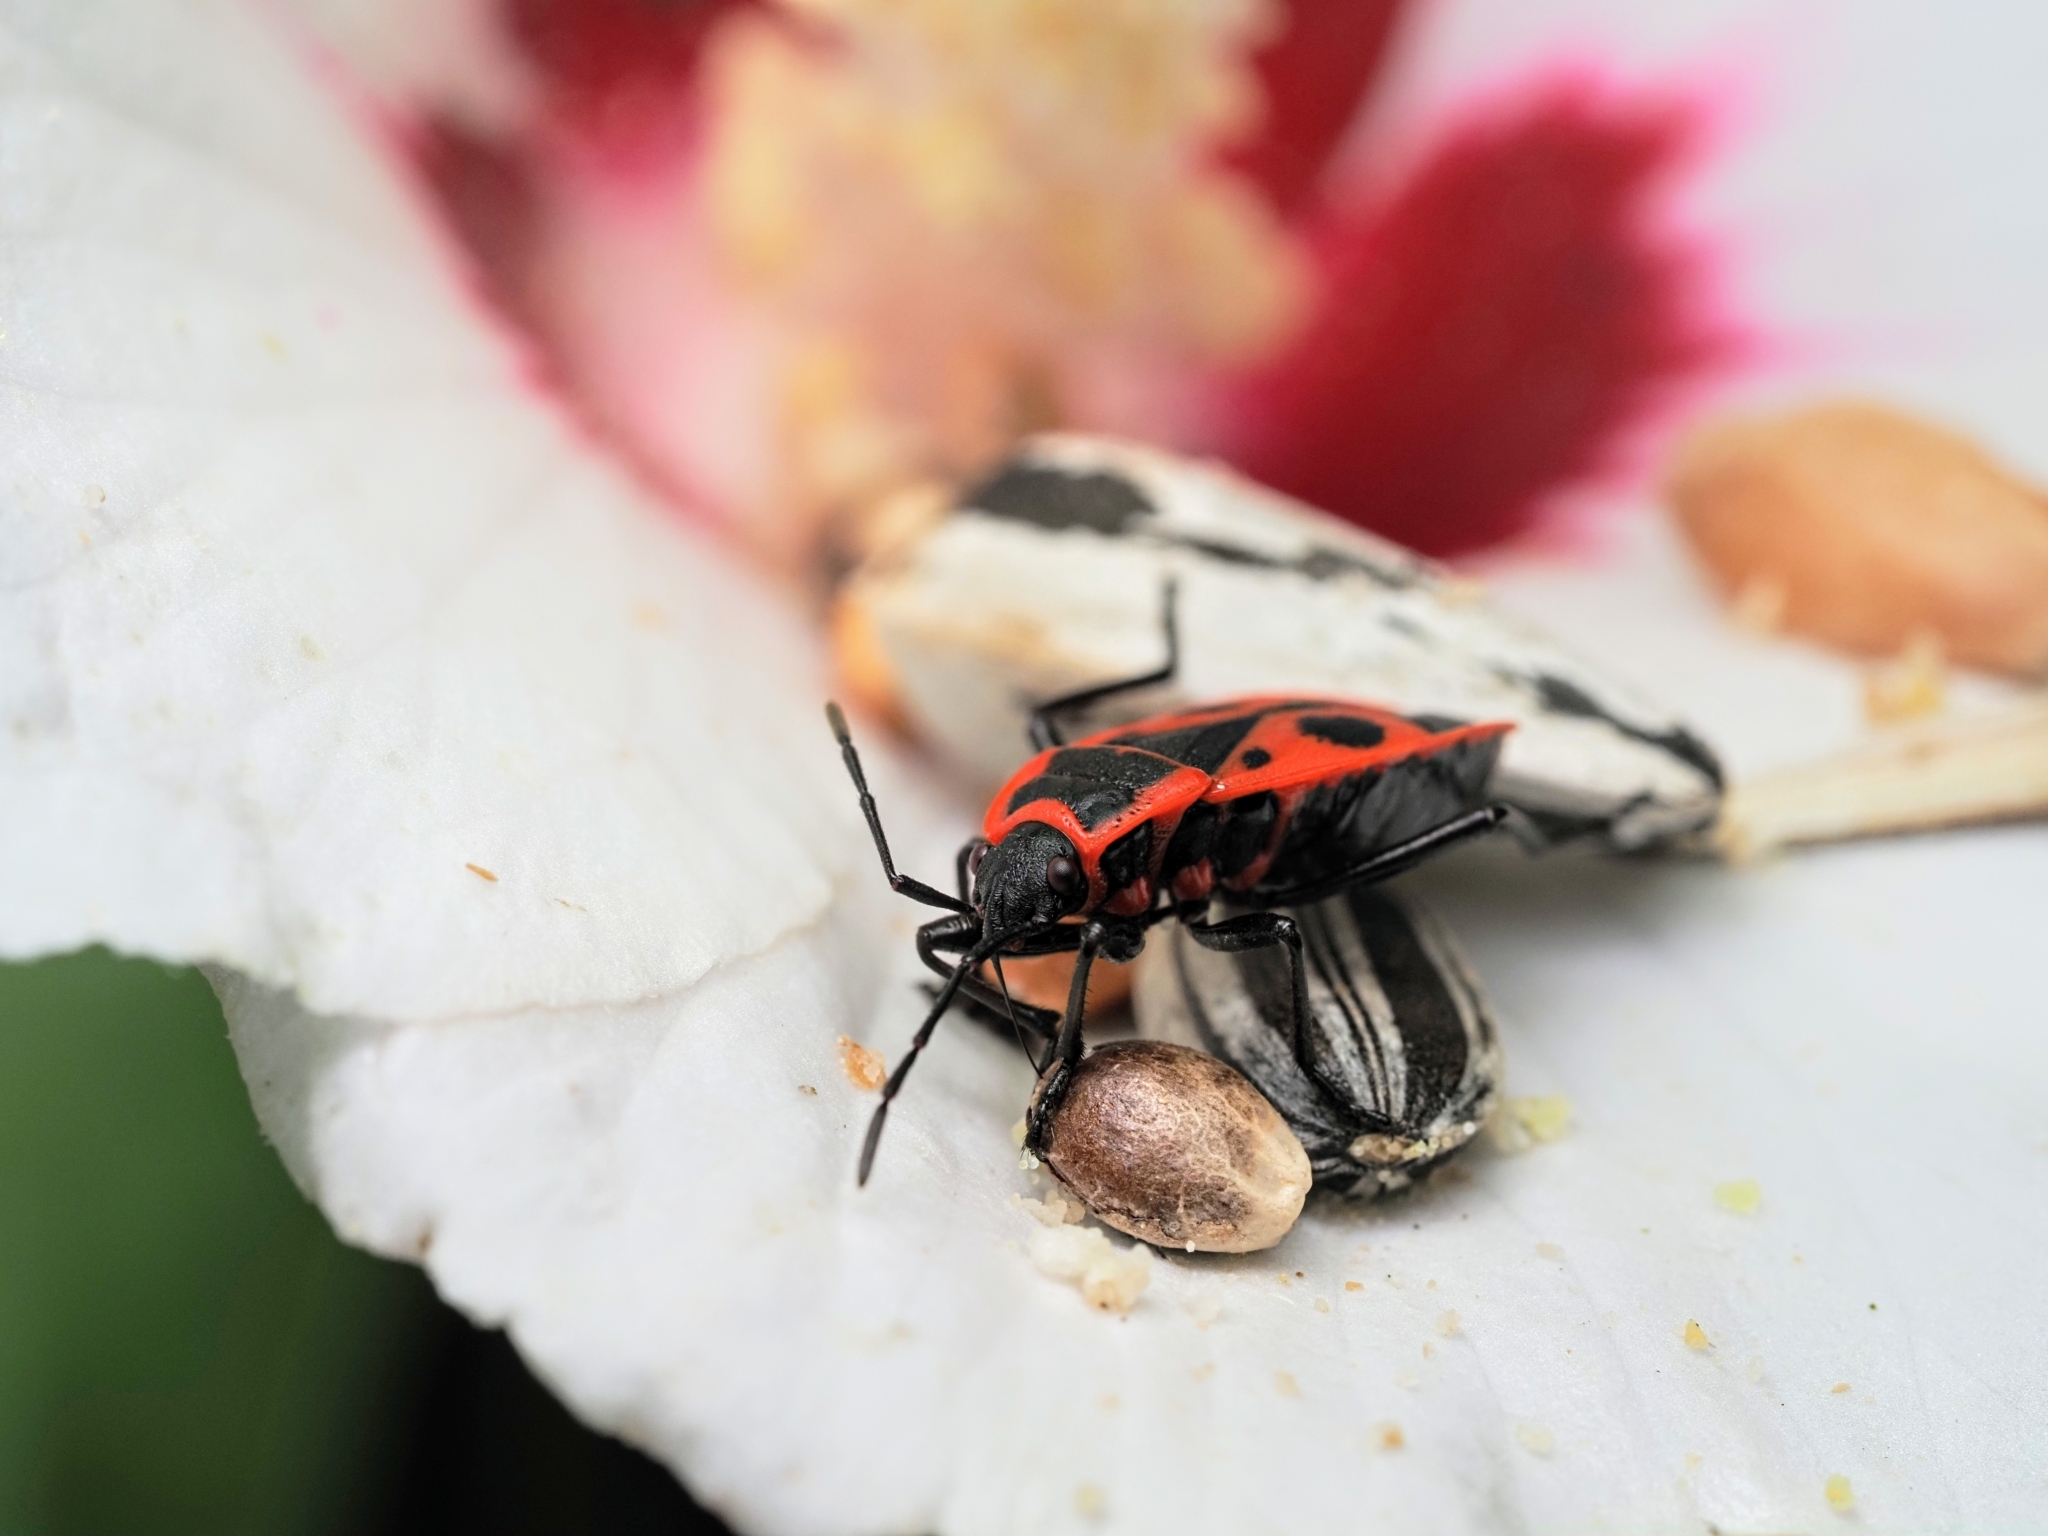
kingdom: Animalia
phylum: Arthropoda
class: Insecta
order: Hemiptera
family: Pyrrhocoridae
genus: Pyrrhocoris
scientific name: Pyrrhocoris apterus
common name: Firebug
